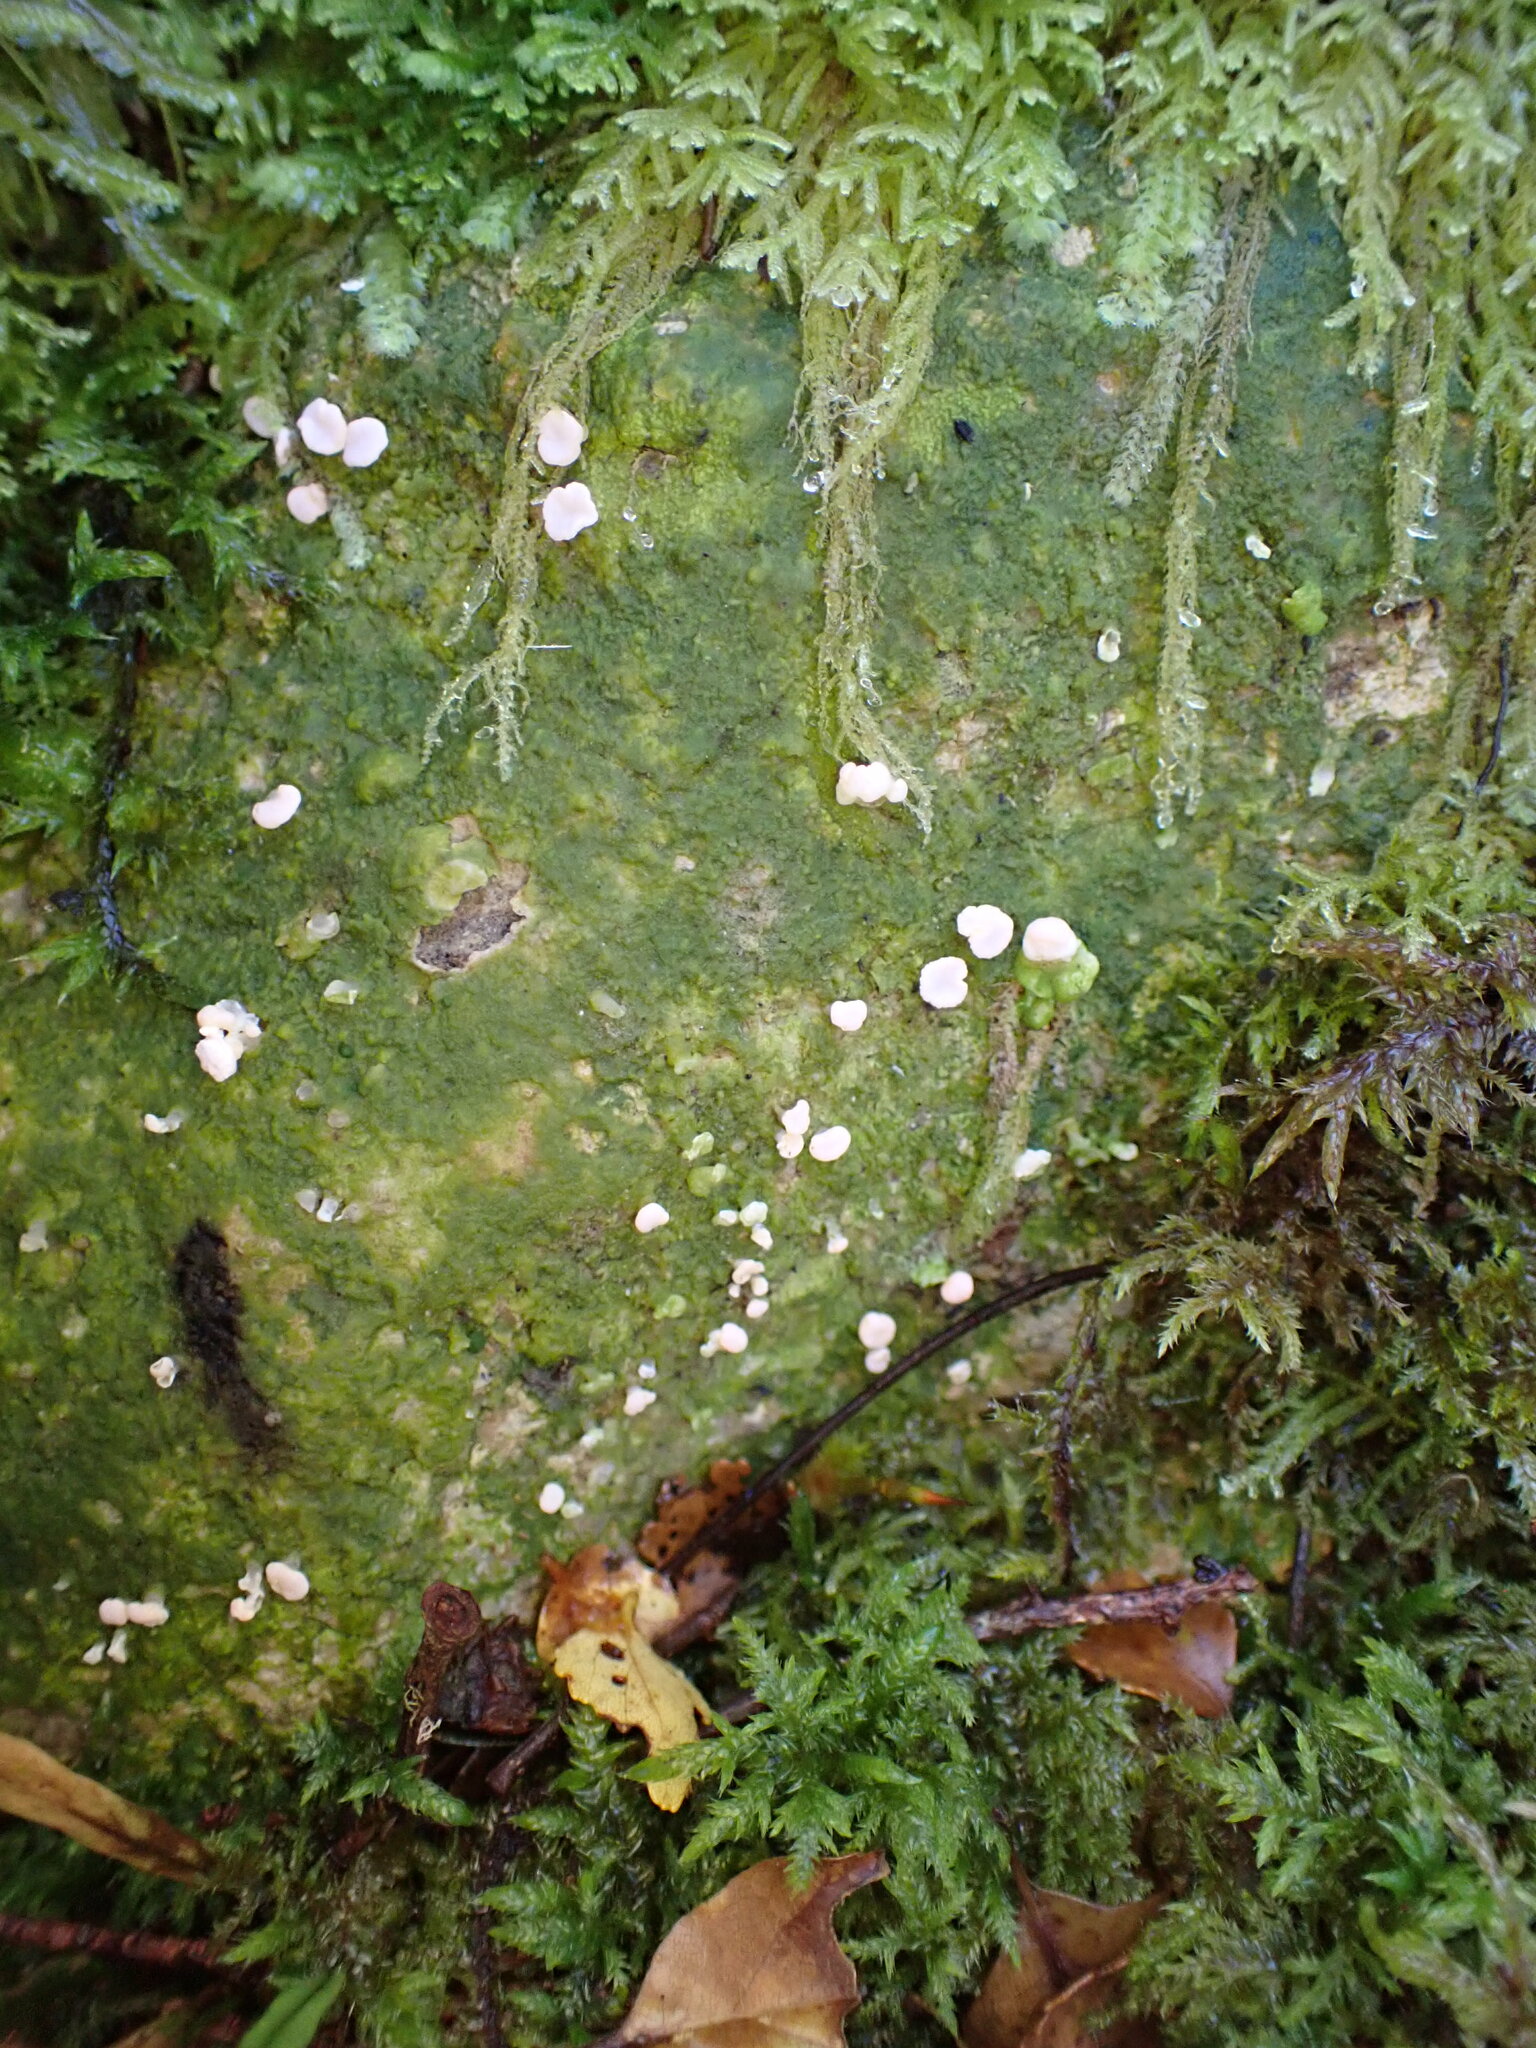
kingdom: Fungi
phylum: Ascomycota
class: Lecanoromycetes
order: Pertusariales
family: Icmadophilaceae
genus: Dibaeis
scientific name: Dibaeis absoluta
